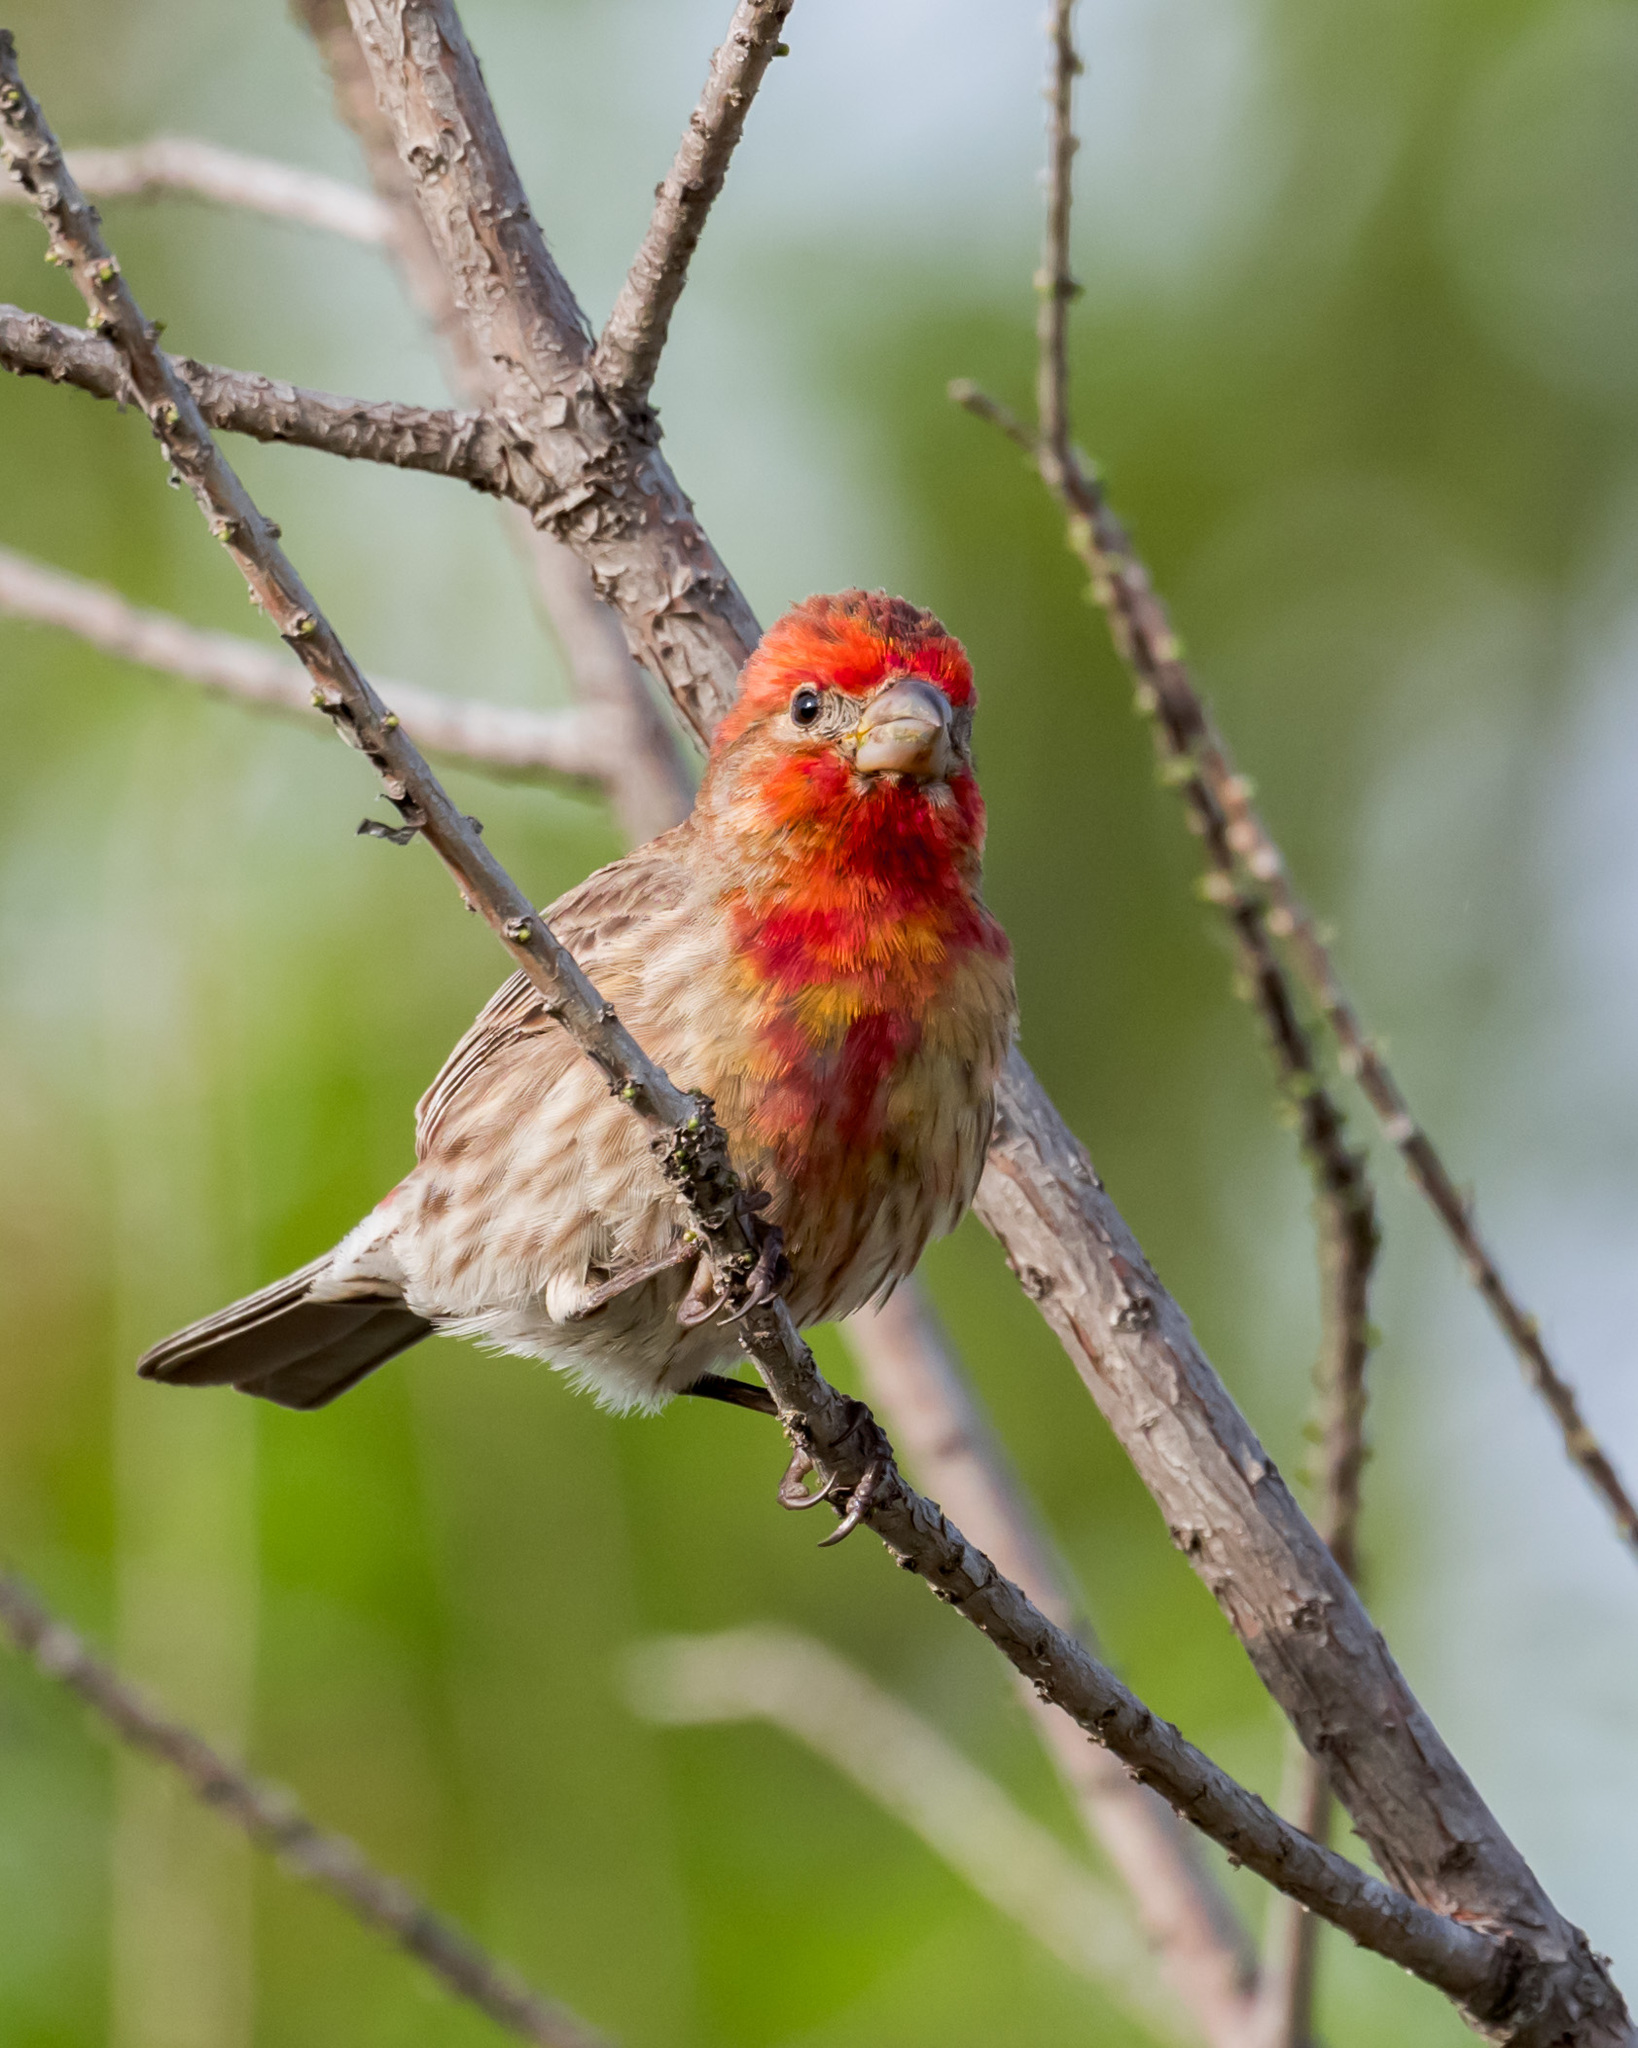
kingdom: Animalia
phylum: Chordata
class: Aves
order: Passeriformes
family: Fringillidae
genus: Haemorhous
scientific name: Haemorhous mexicanus
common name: House finch
